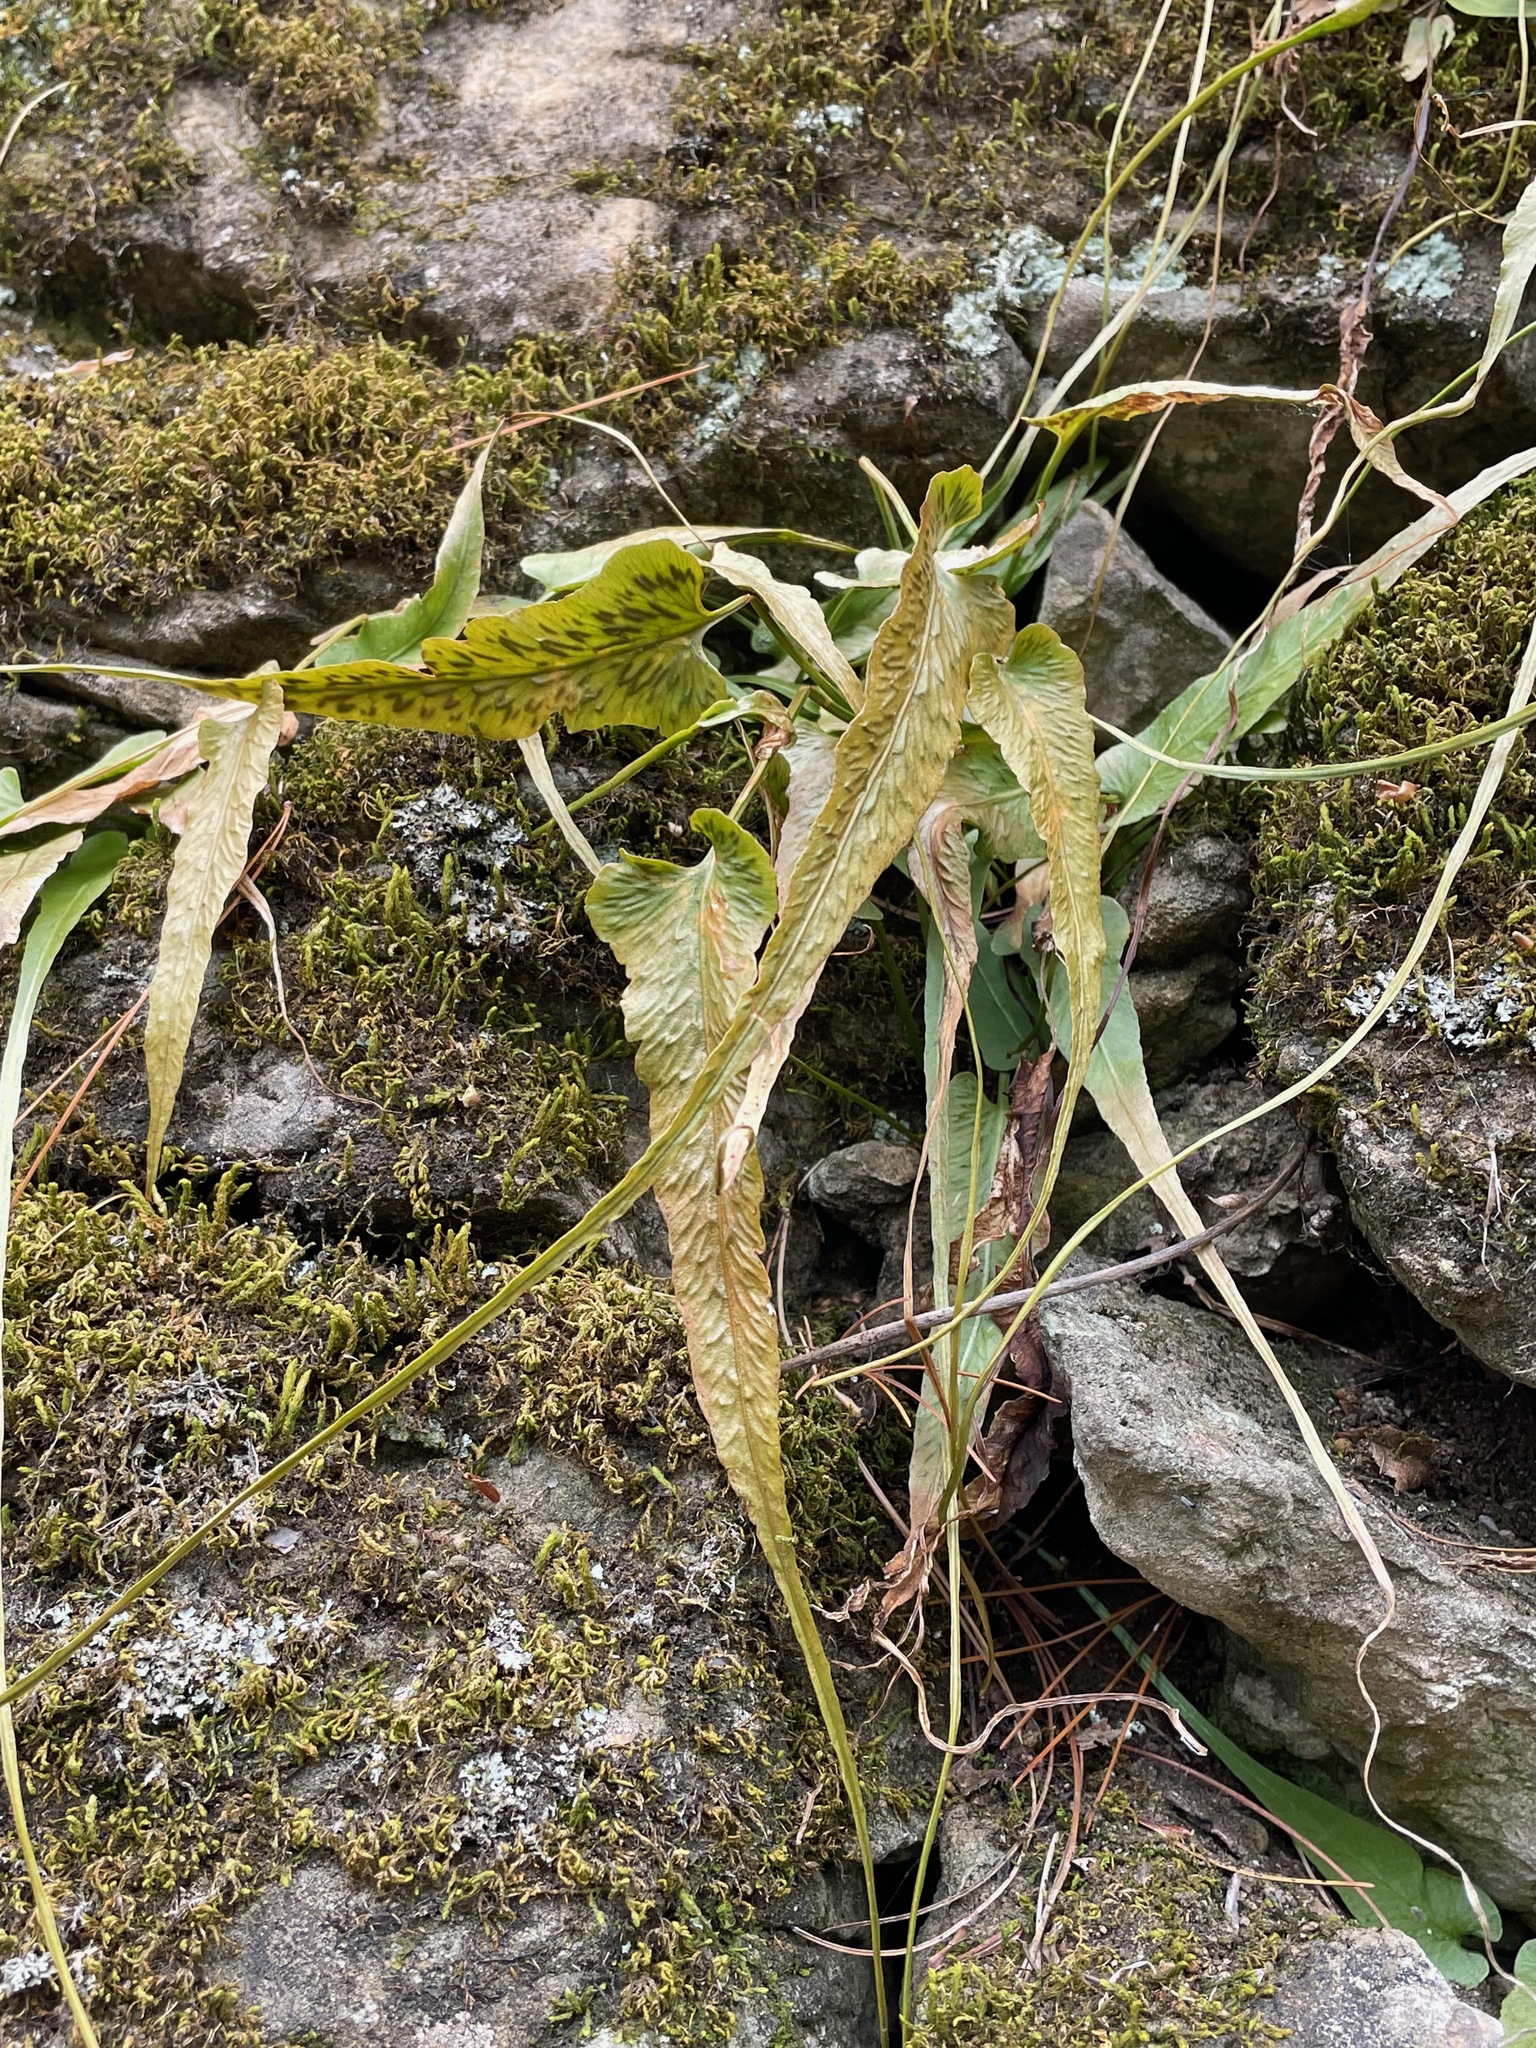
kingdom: Plantae
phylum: Tracheophyta
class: Polypodiopsida
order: Polypodiales
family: Aspleniaceae
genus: Asplenium
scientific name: Asplenium rhizophyllum
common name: Walking fern
